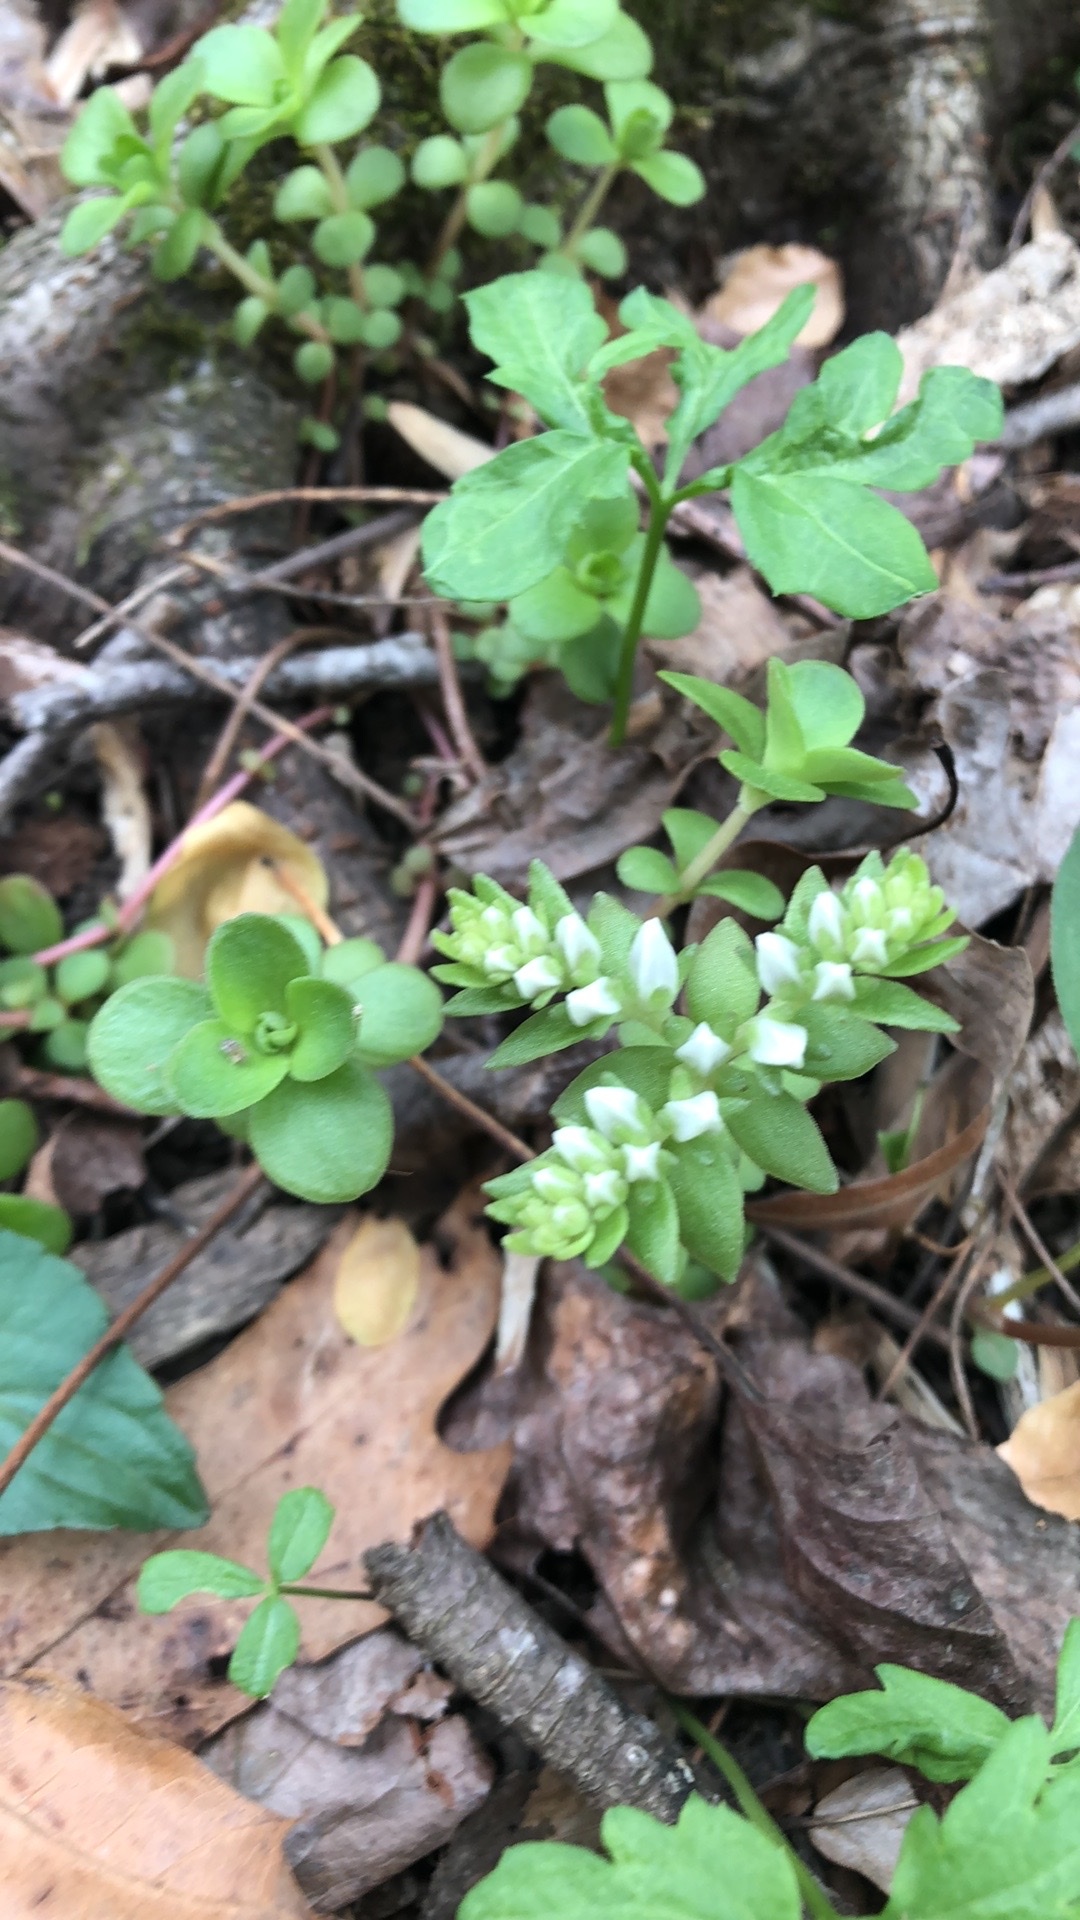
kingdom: Plantae
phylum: Tracheophyta
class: Magnoliopsida
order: Saxifragales
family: Crassulaceae
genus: Sedum
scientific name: Sedum ternatum
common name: Wild stonecrop
